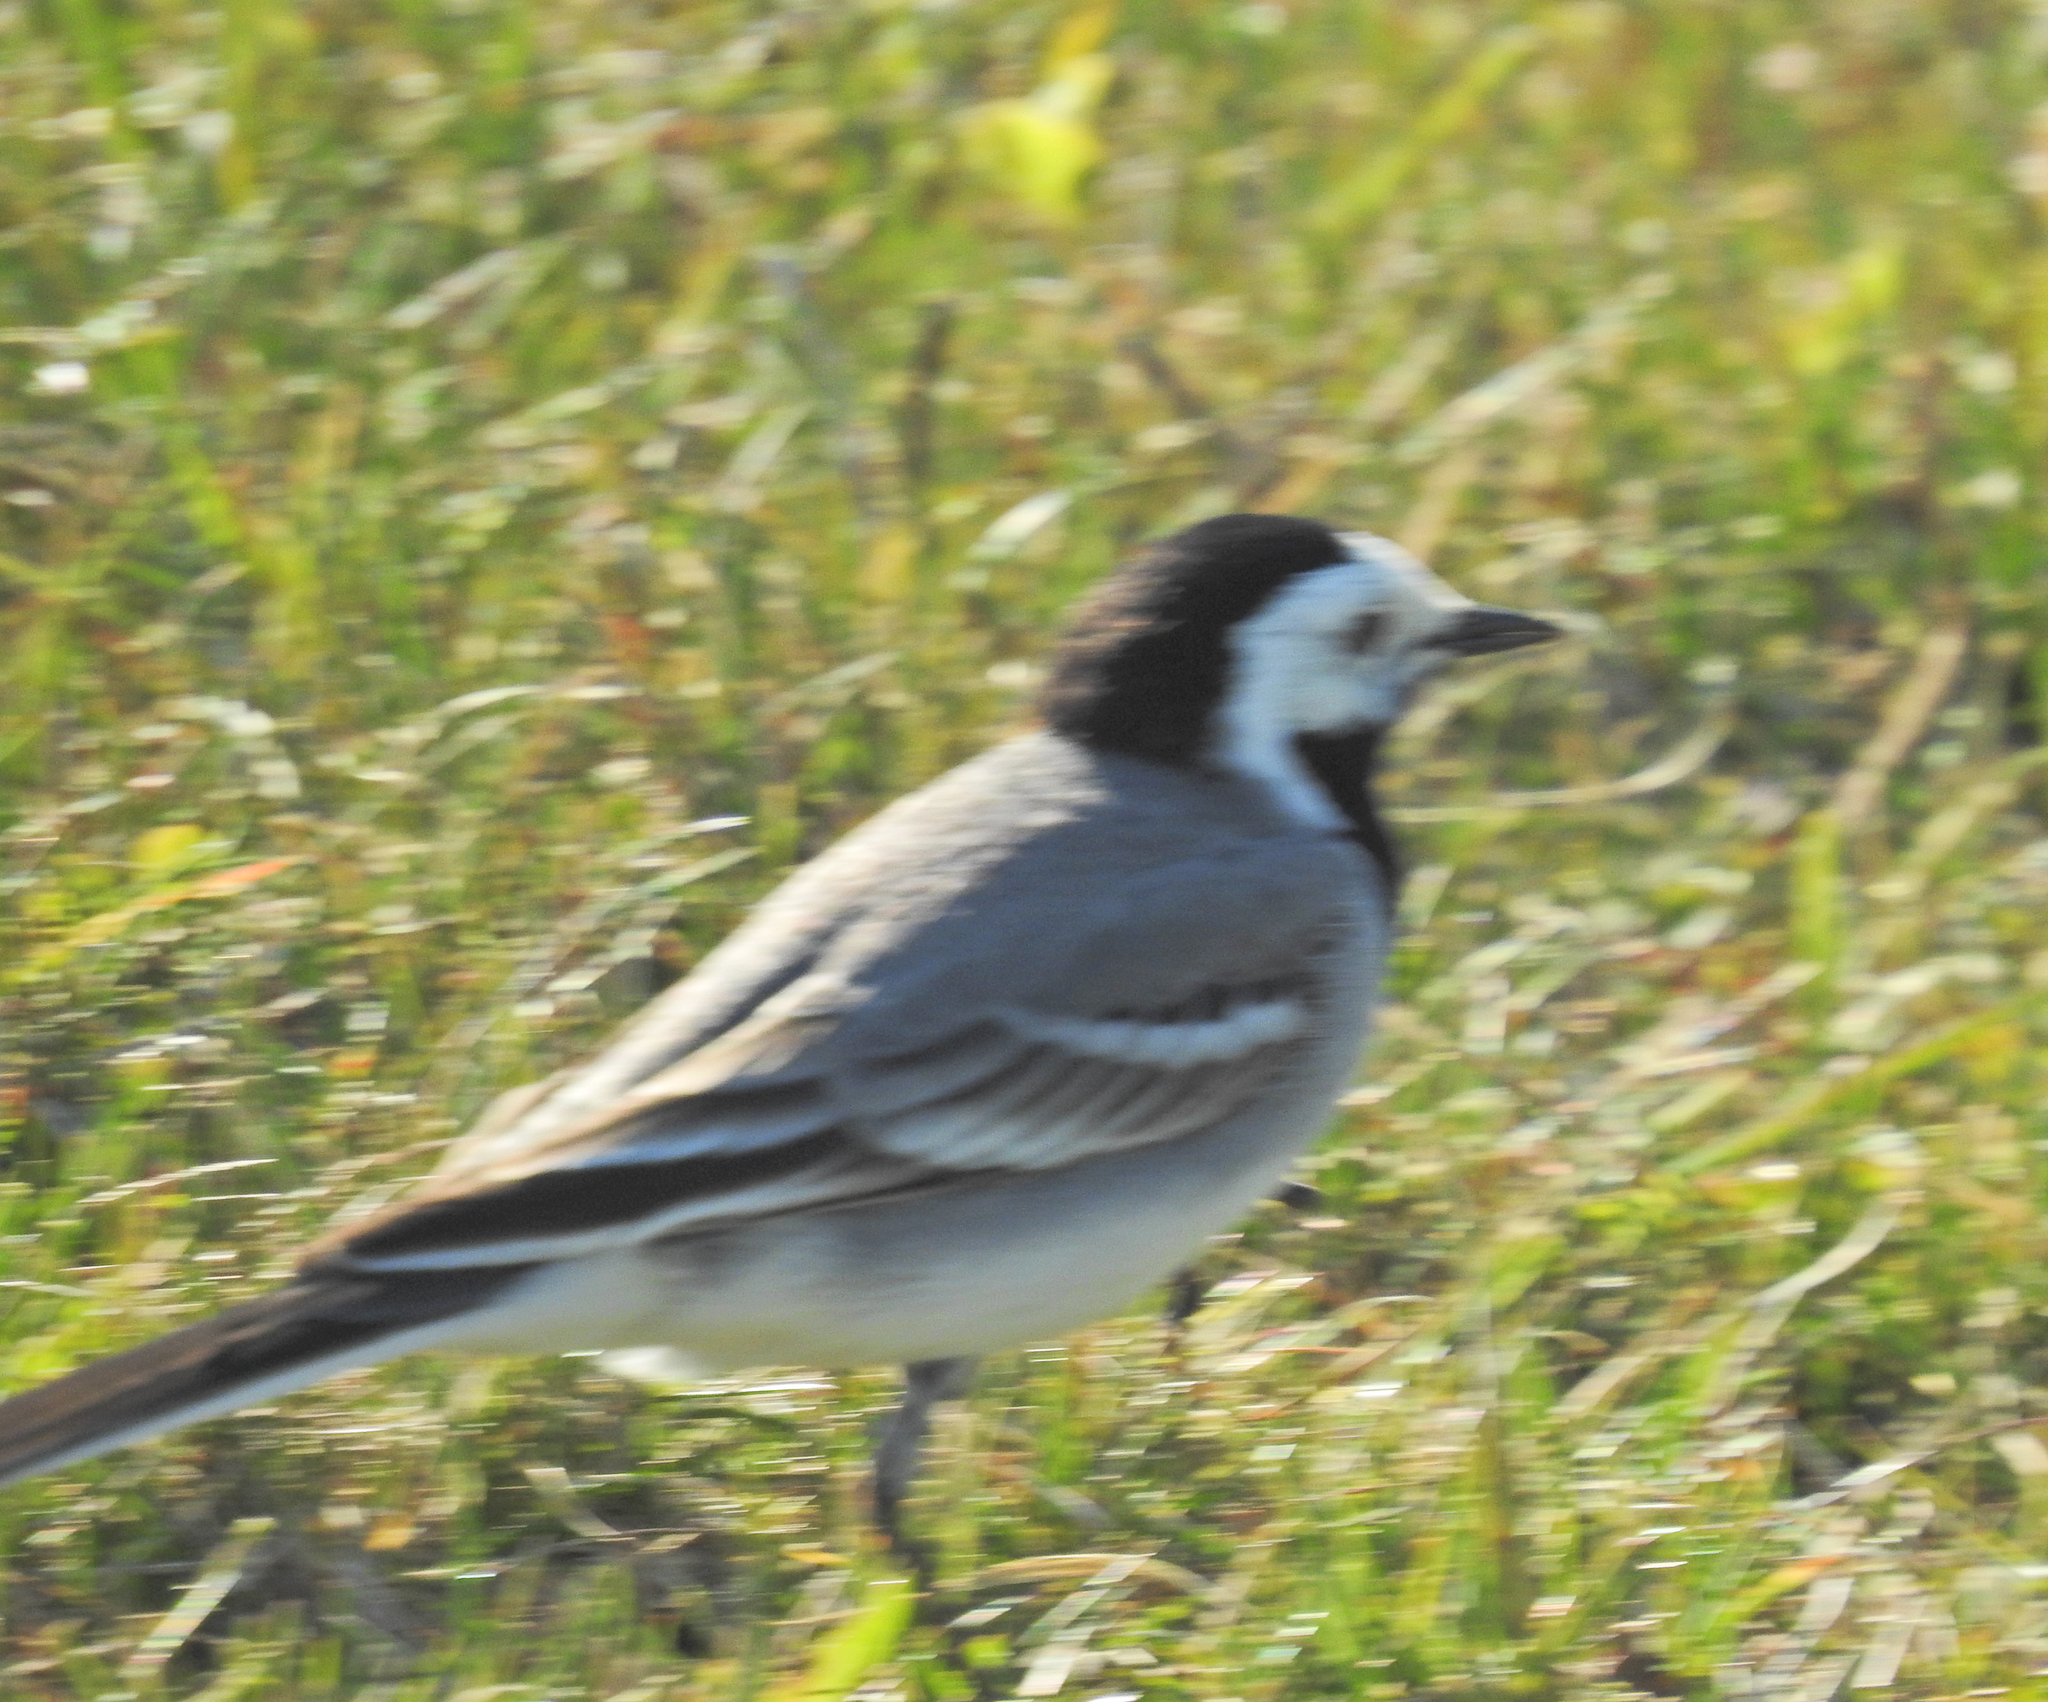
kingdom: Animalia
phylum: Chordata
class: Aves
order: Passeriformes
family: Motacillidae
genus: Motacilla
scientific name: Motacilla alba
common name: White wagtail
